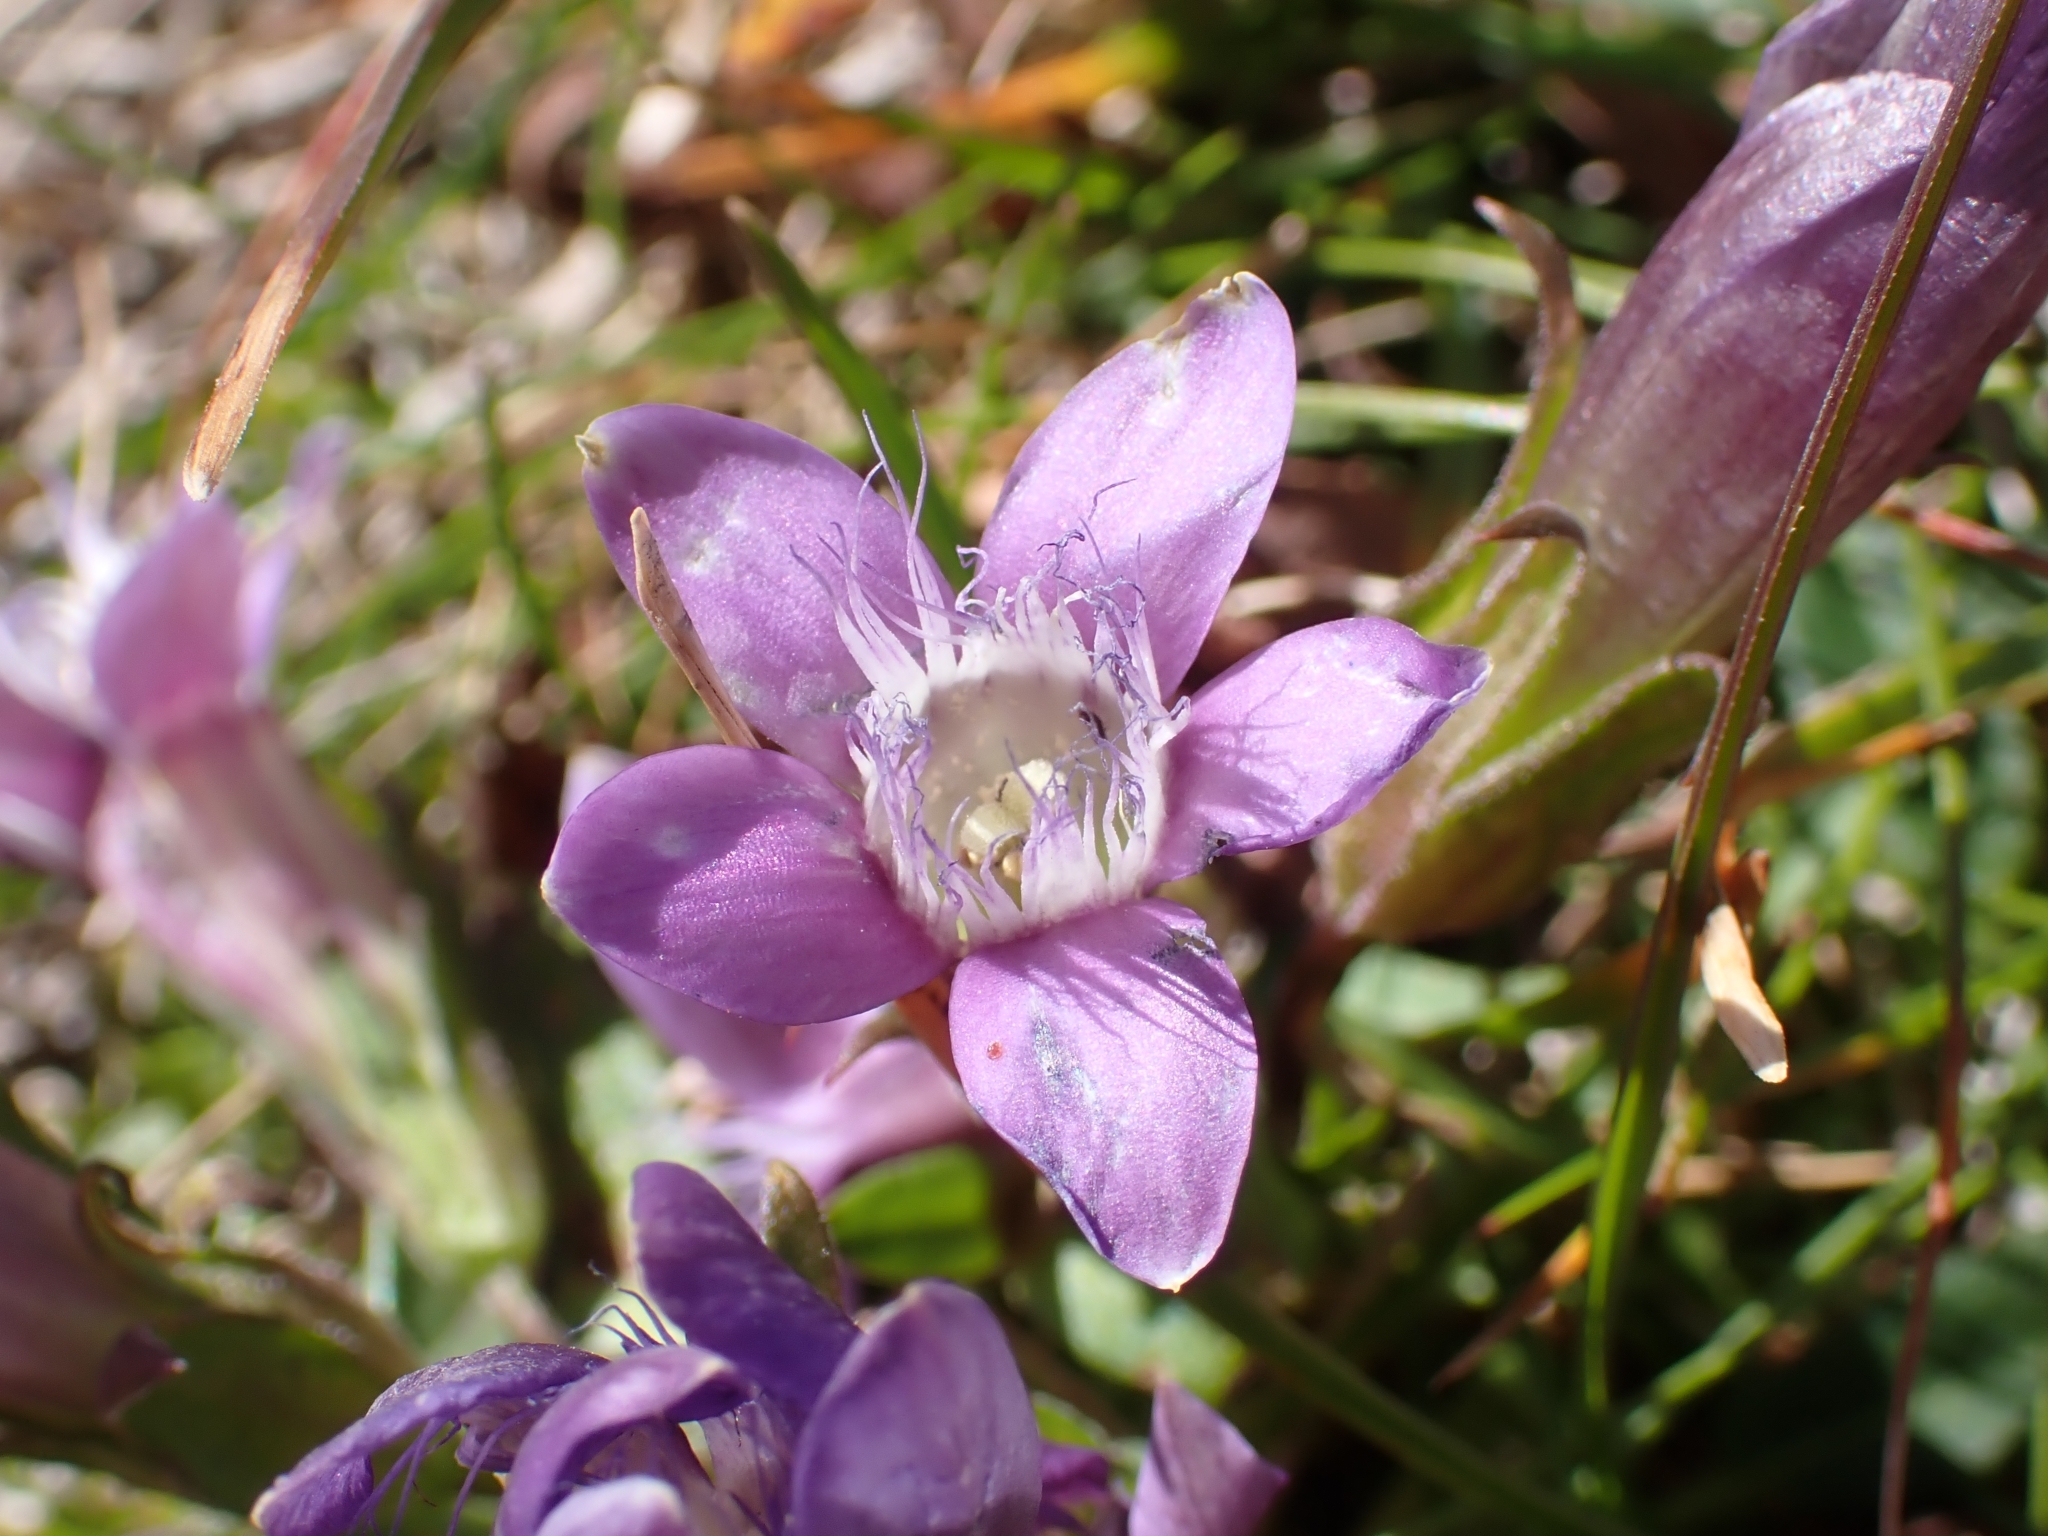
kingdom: Plantae
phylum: Tracheophyta
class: Magnoliopsida
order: Gentianales
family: Gentianaceae
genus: Gentianella
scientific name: Gentianella obtusifolia
